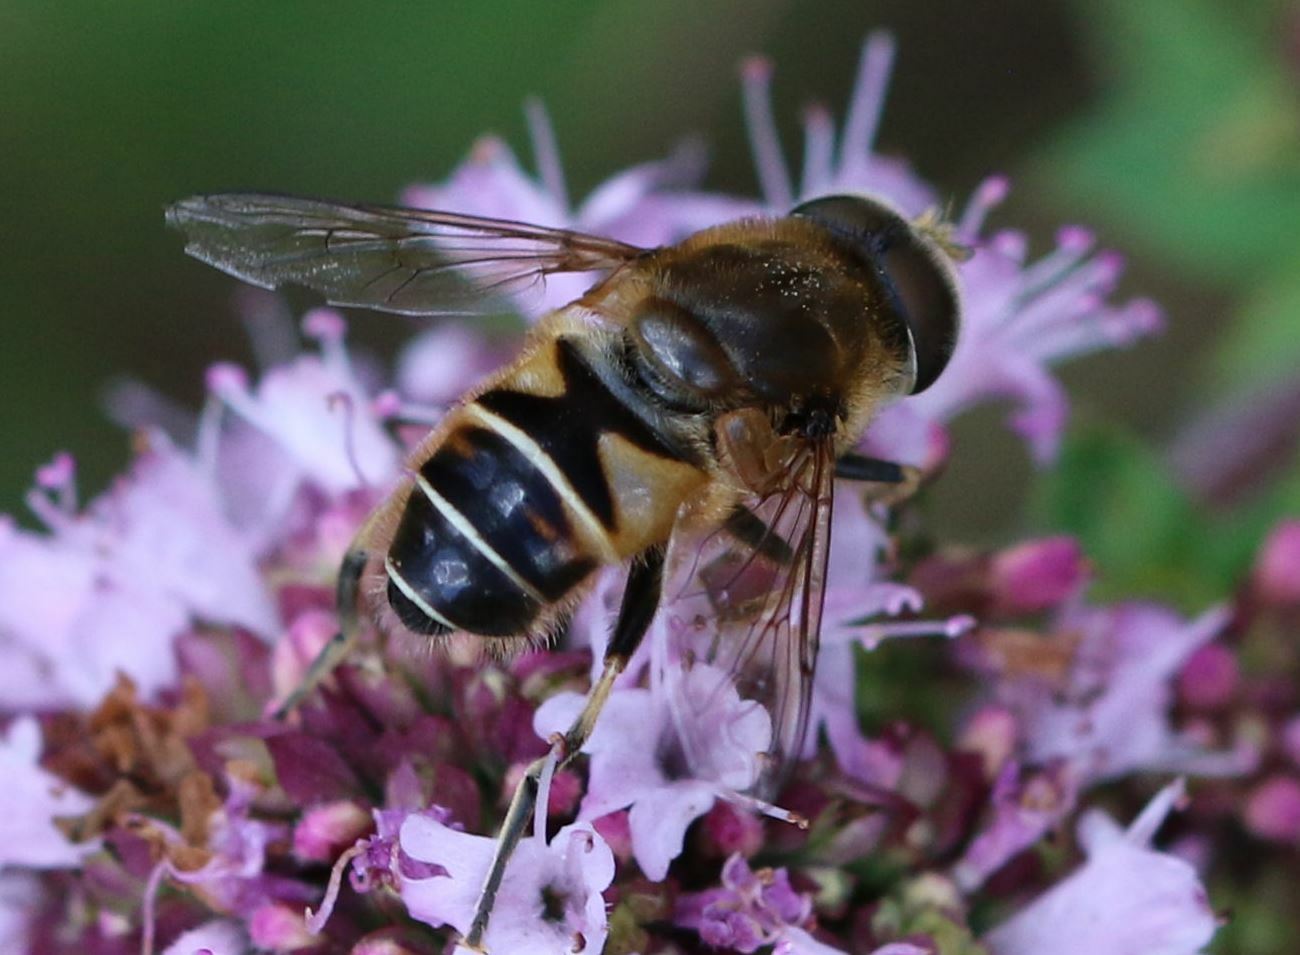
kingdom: Animalia
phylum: Arthropoda
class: Insecta
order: Diptera
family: Syrphidae
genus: Eristalis
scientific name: Eristalis nemorum
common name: Orange-spined drone fly
